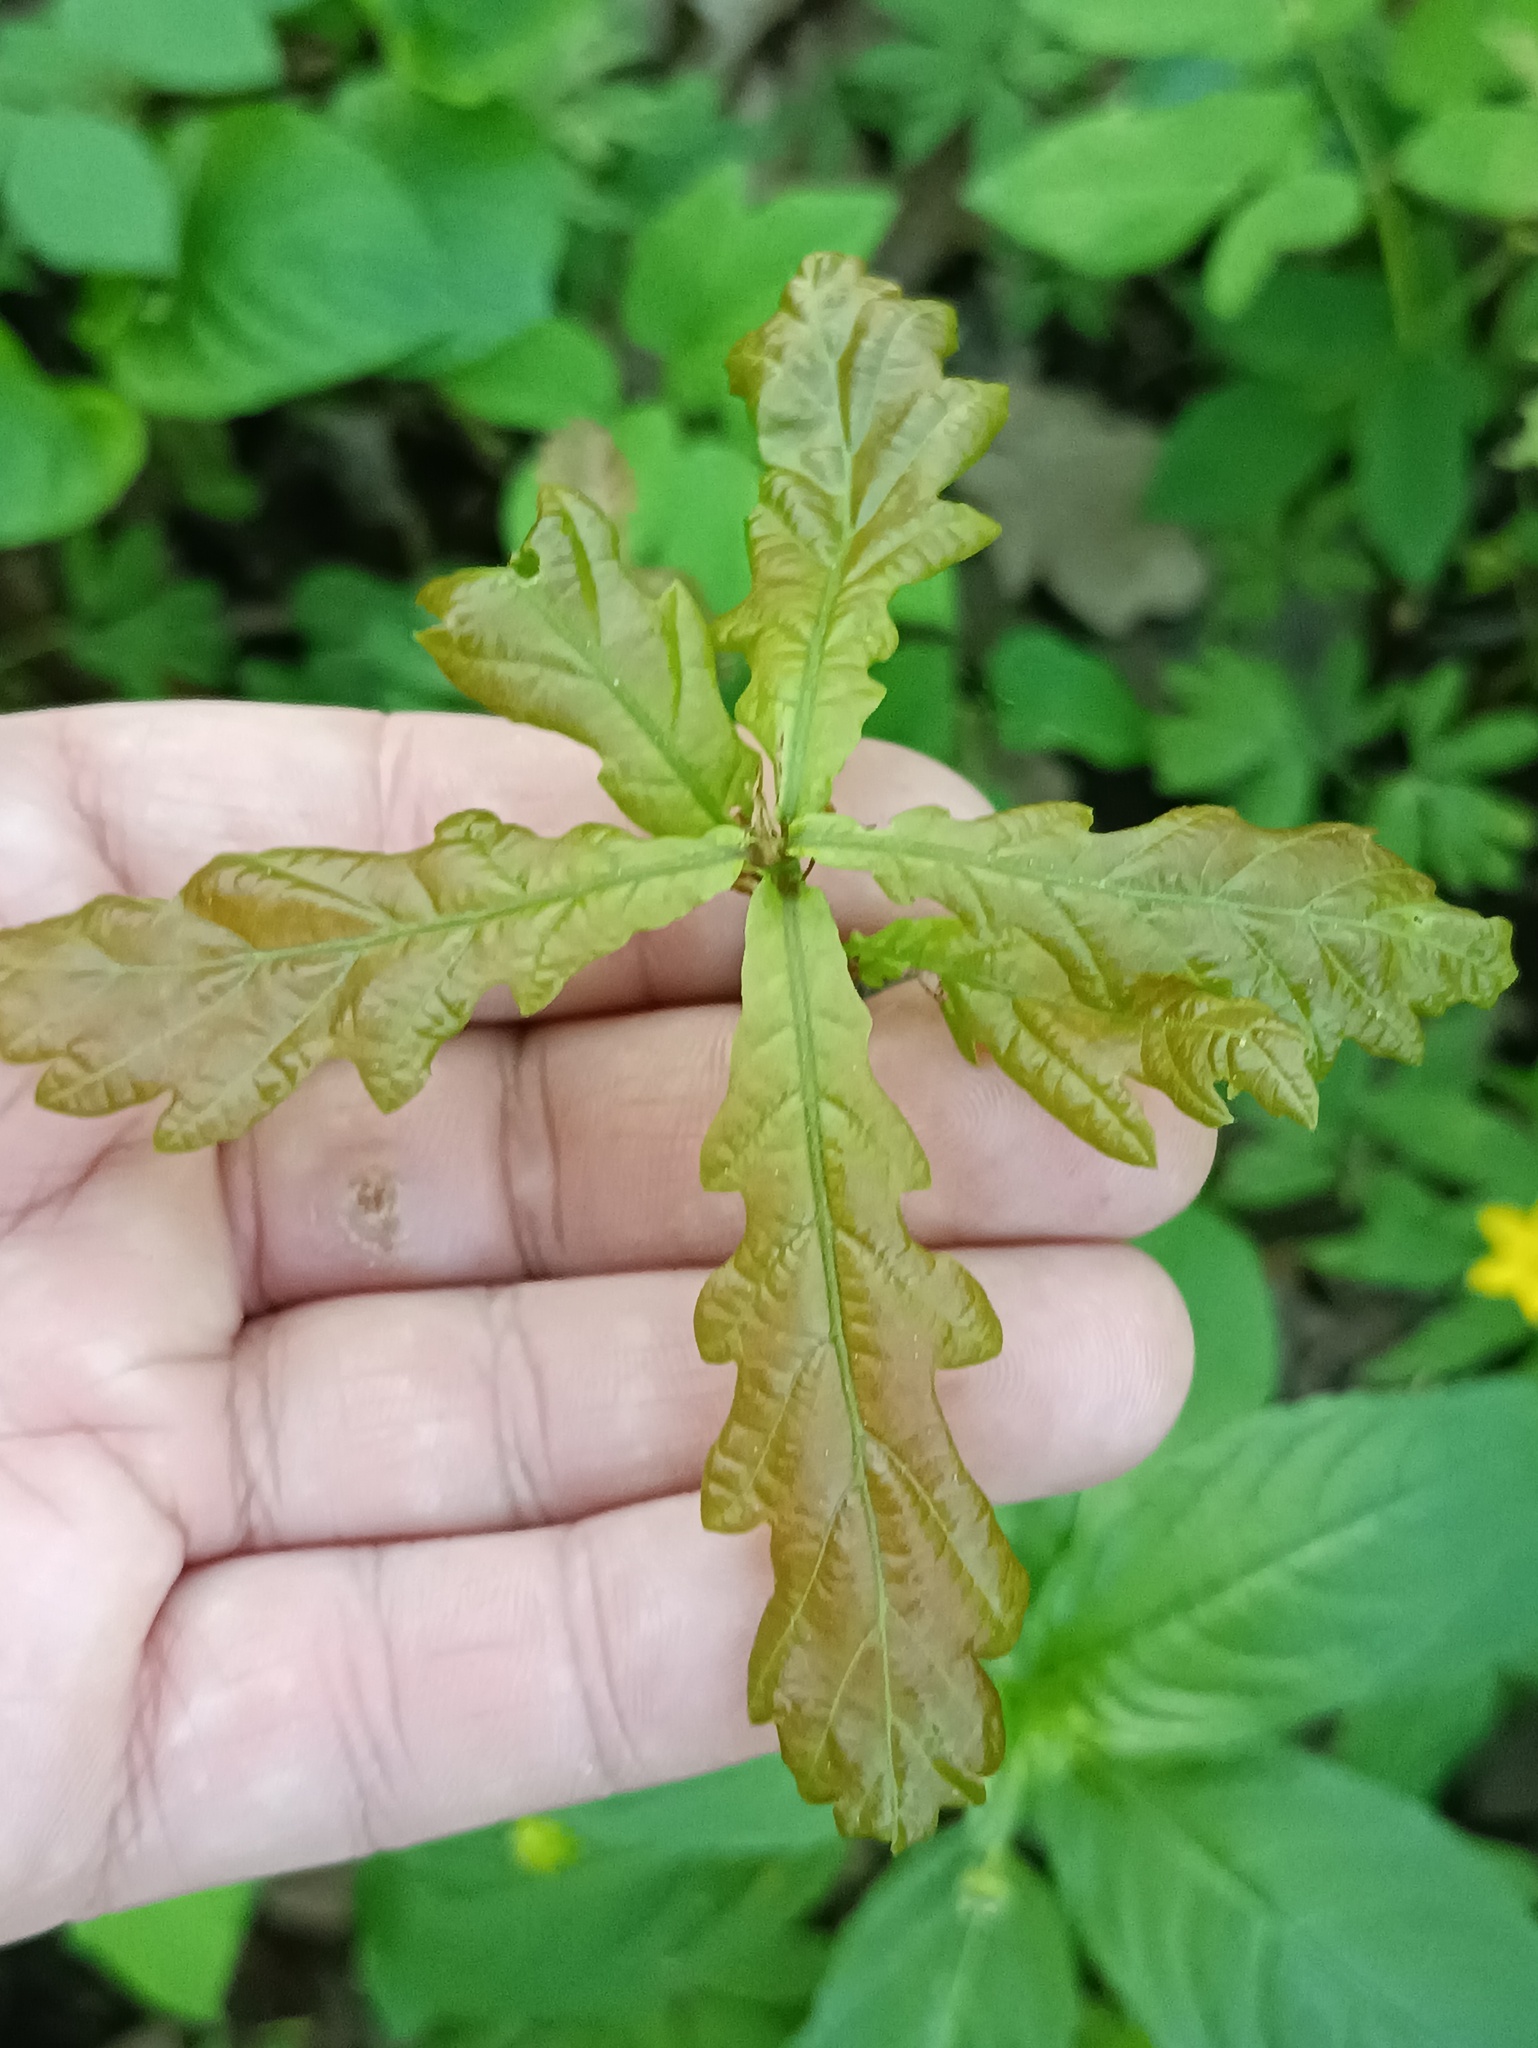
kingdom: Plantae
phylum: Tracheophyta
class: Magnoliopsida
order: Fagales
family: Fagaceae
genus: Quercus
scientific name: Quercus robur
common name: Pedunculate oak
